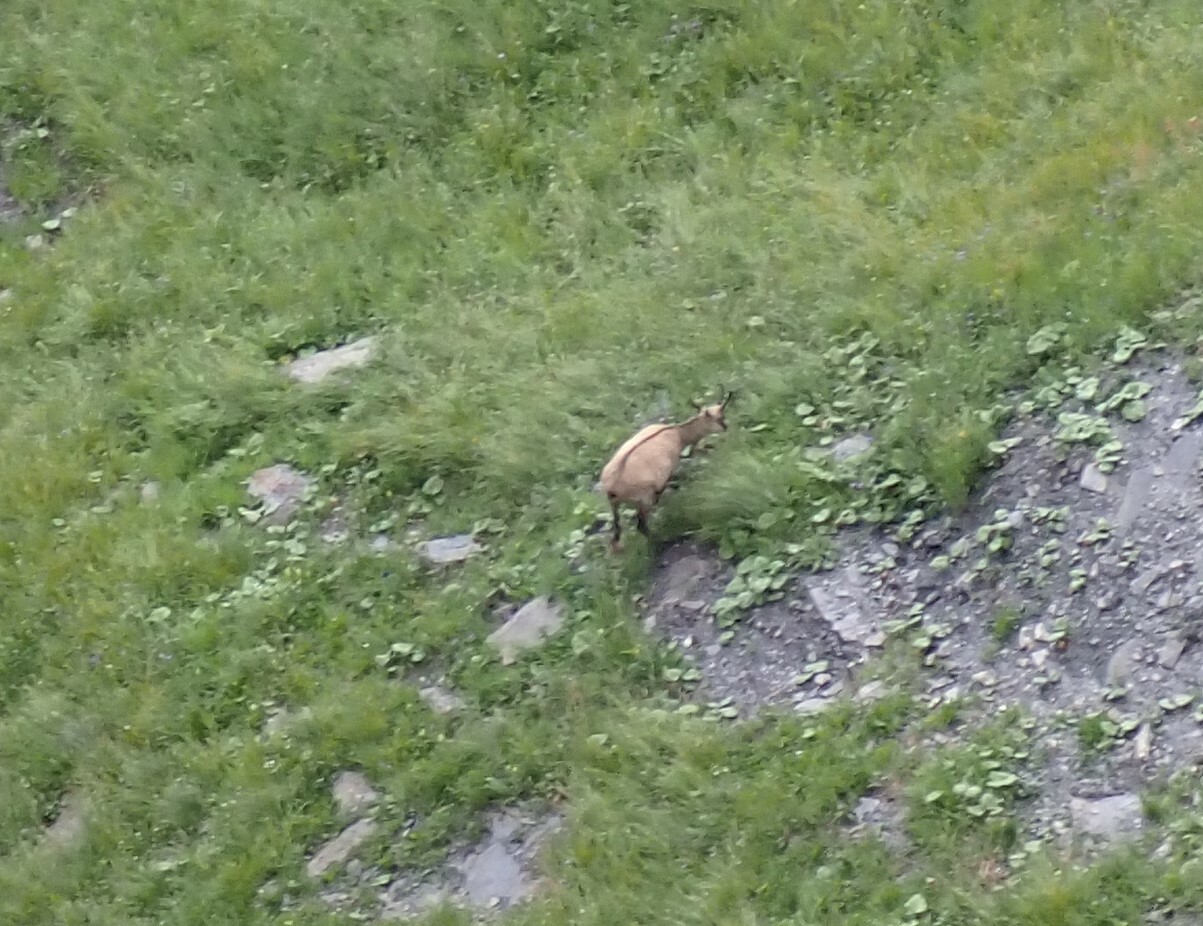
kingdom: Animalia
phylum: Chordata
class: Mammalia
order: Artiodactyla
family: Bovidae
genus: Rupicapra
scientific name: Rupicapra rupicapra
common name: Chamois
